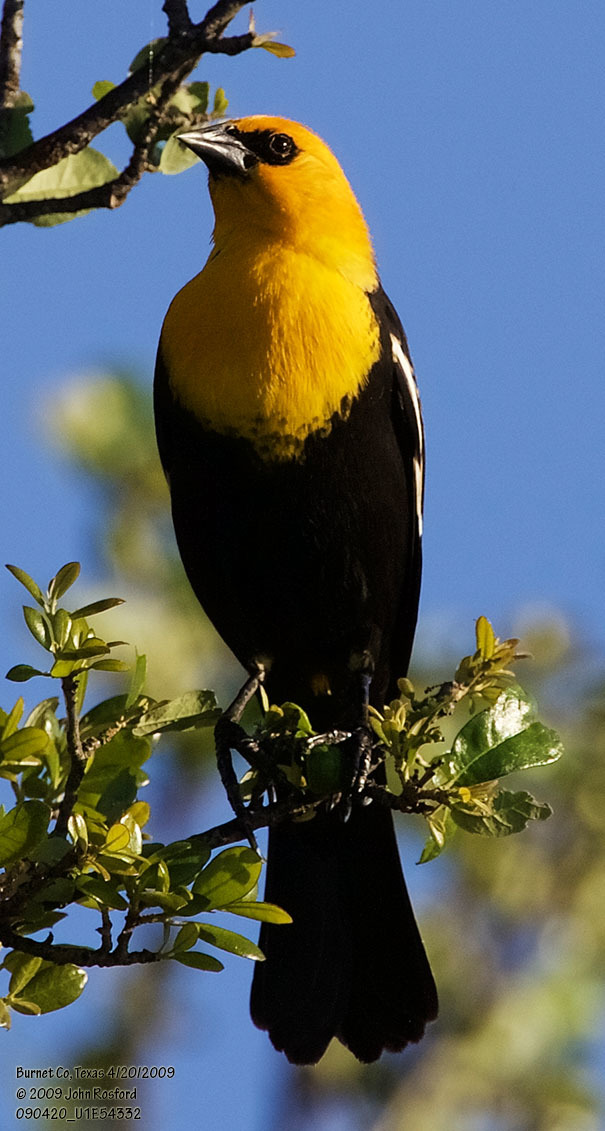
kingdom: Animalia
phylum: Chordata
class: Aves
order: Passeriformes
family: Icteridae
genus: Xanthocephalus
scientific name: Xanthocephalus xanthocephalus
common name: Yellow-headed blackbird
